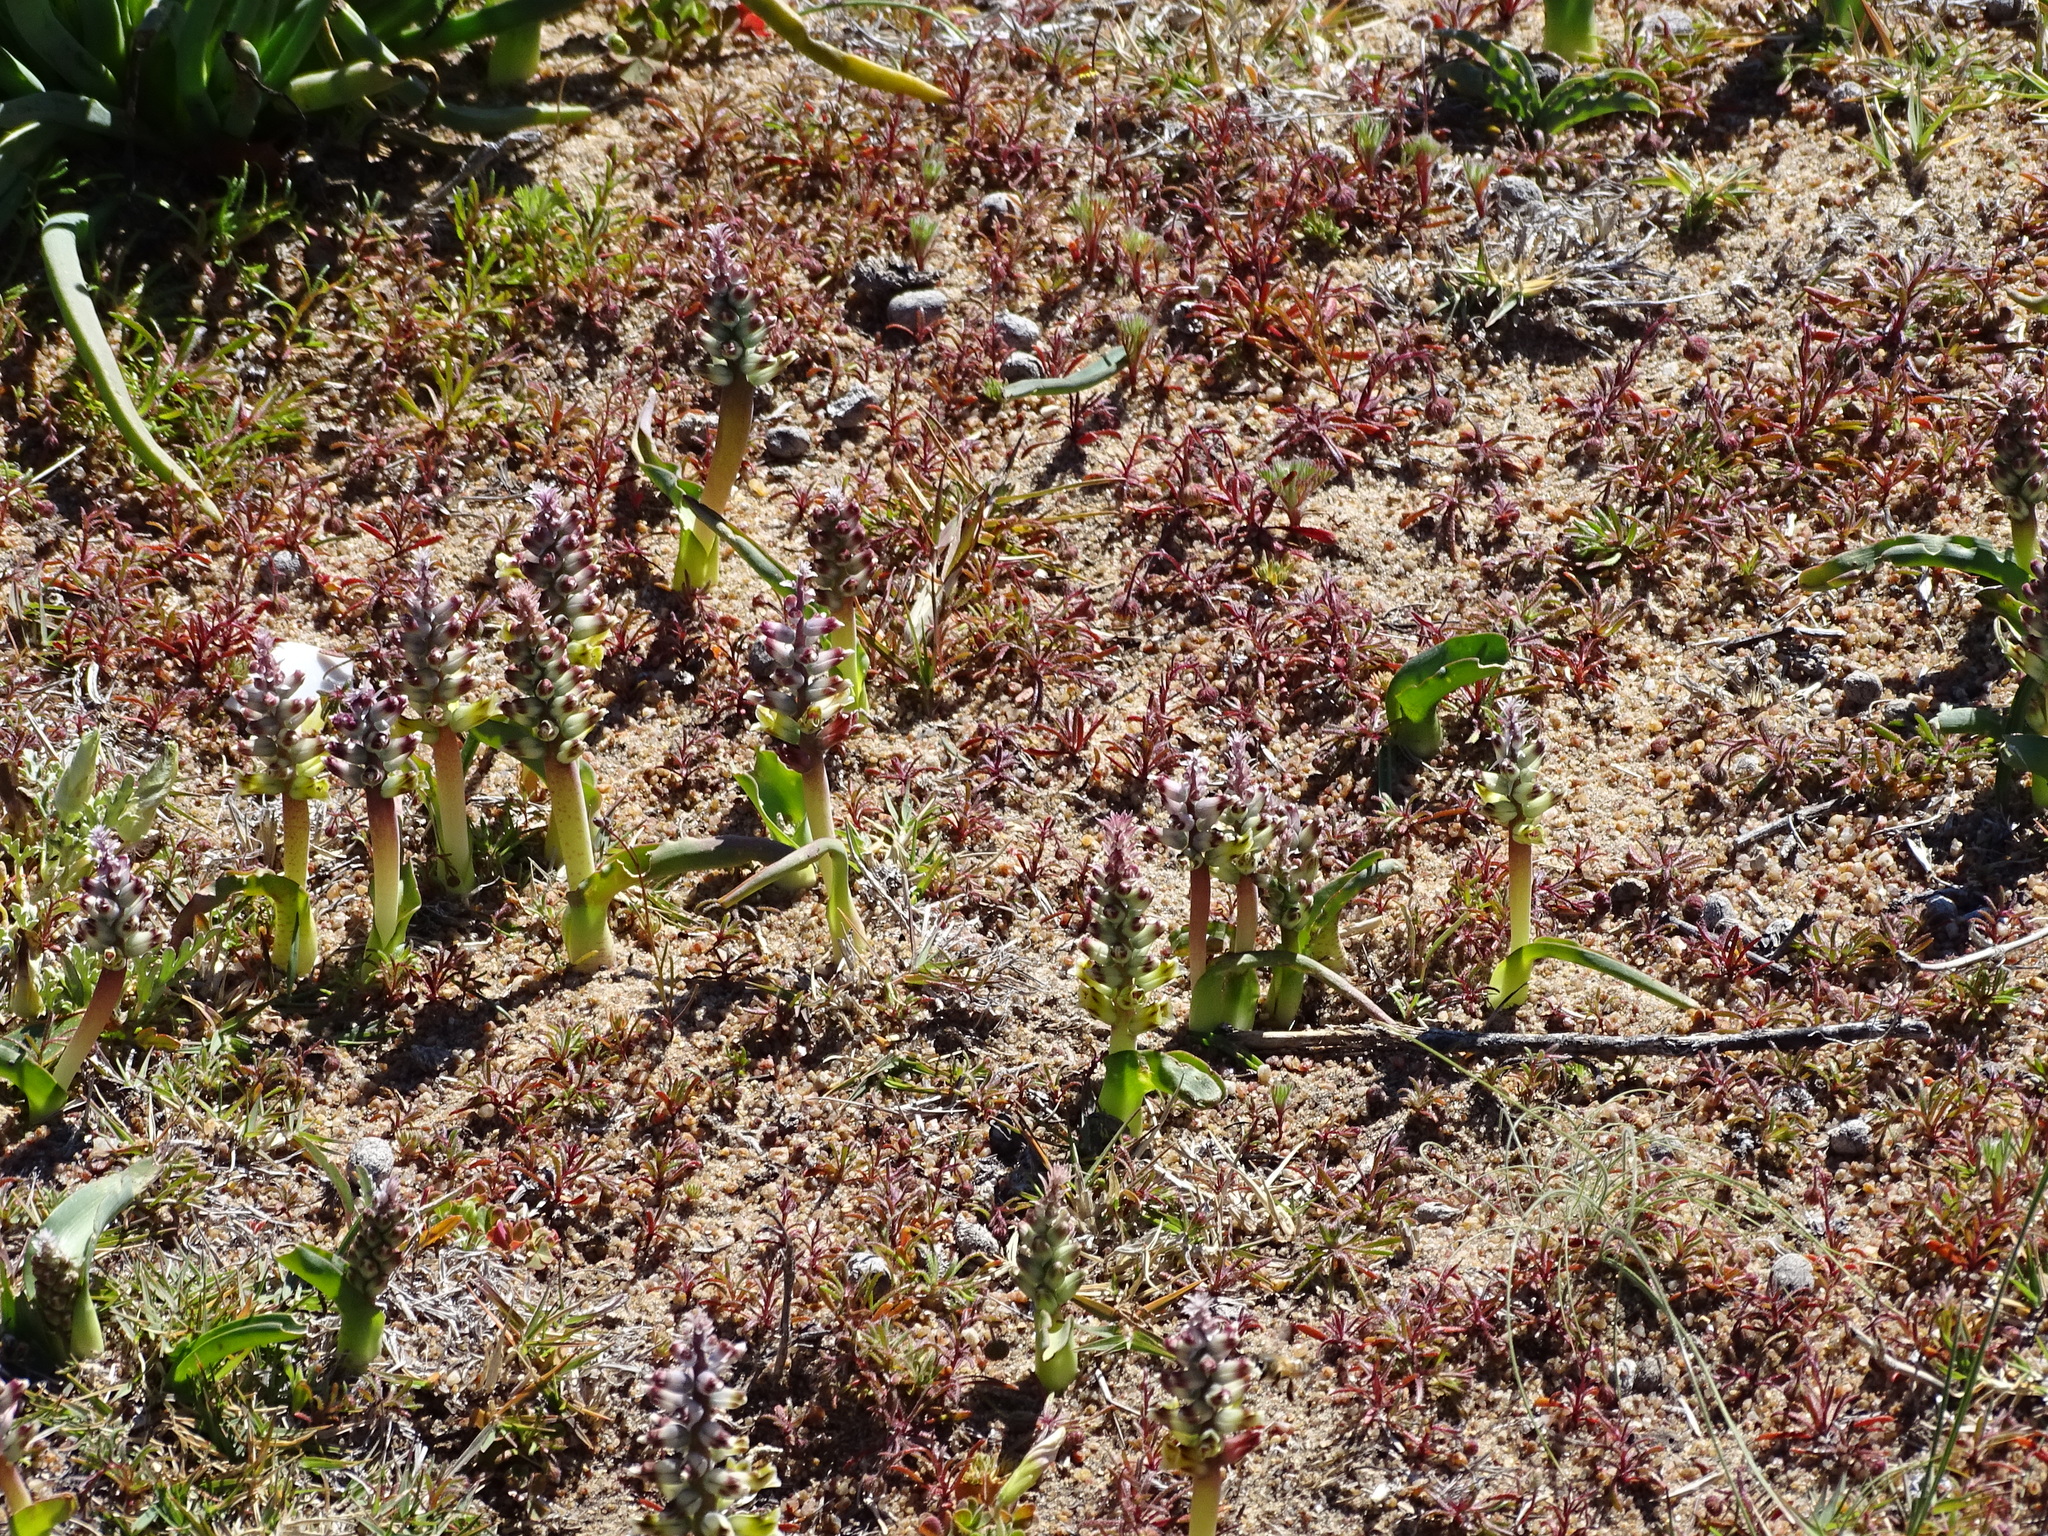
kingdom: Plantae
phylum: Tracheophyta
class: Liliopsida
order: Asparagales
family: Asparagaceae
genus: Lachenalia
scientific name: Lachenalia mutabilis
